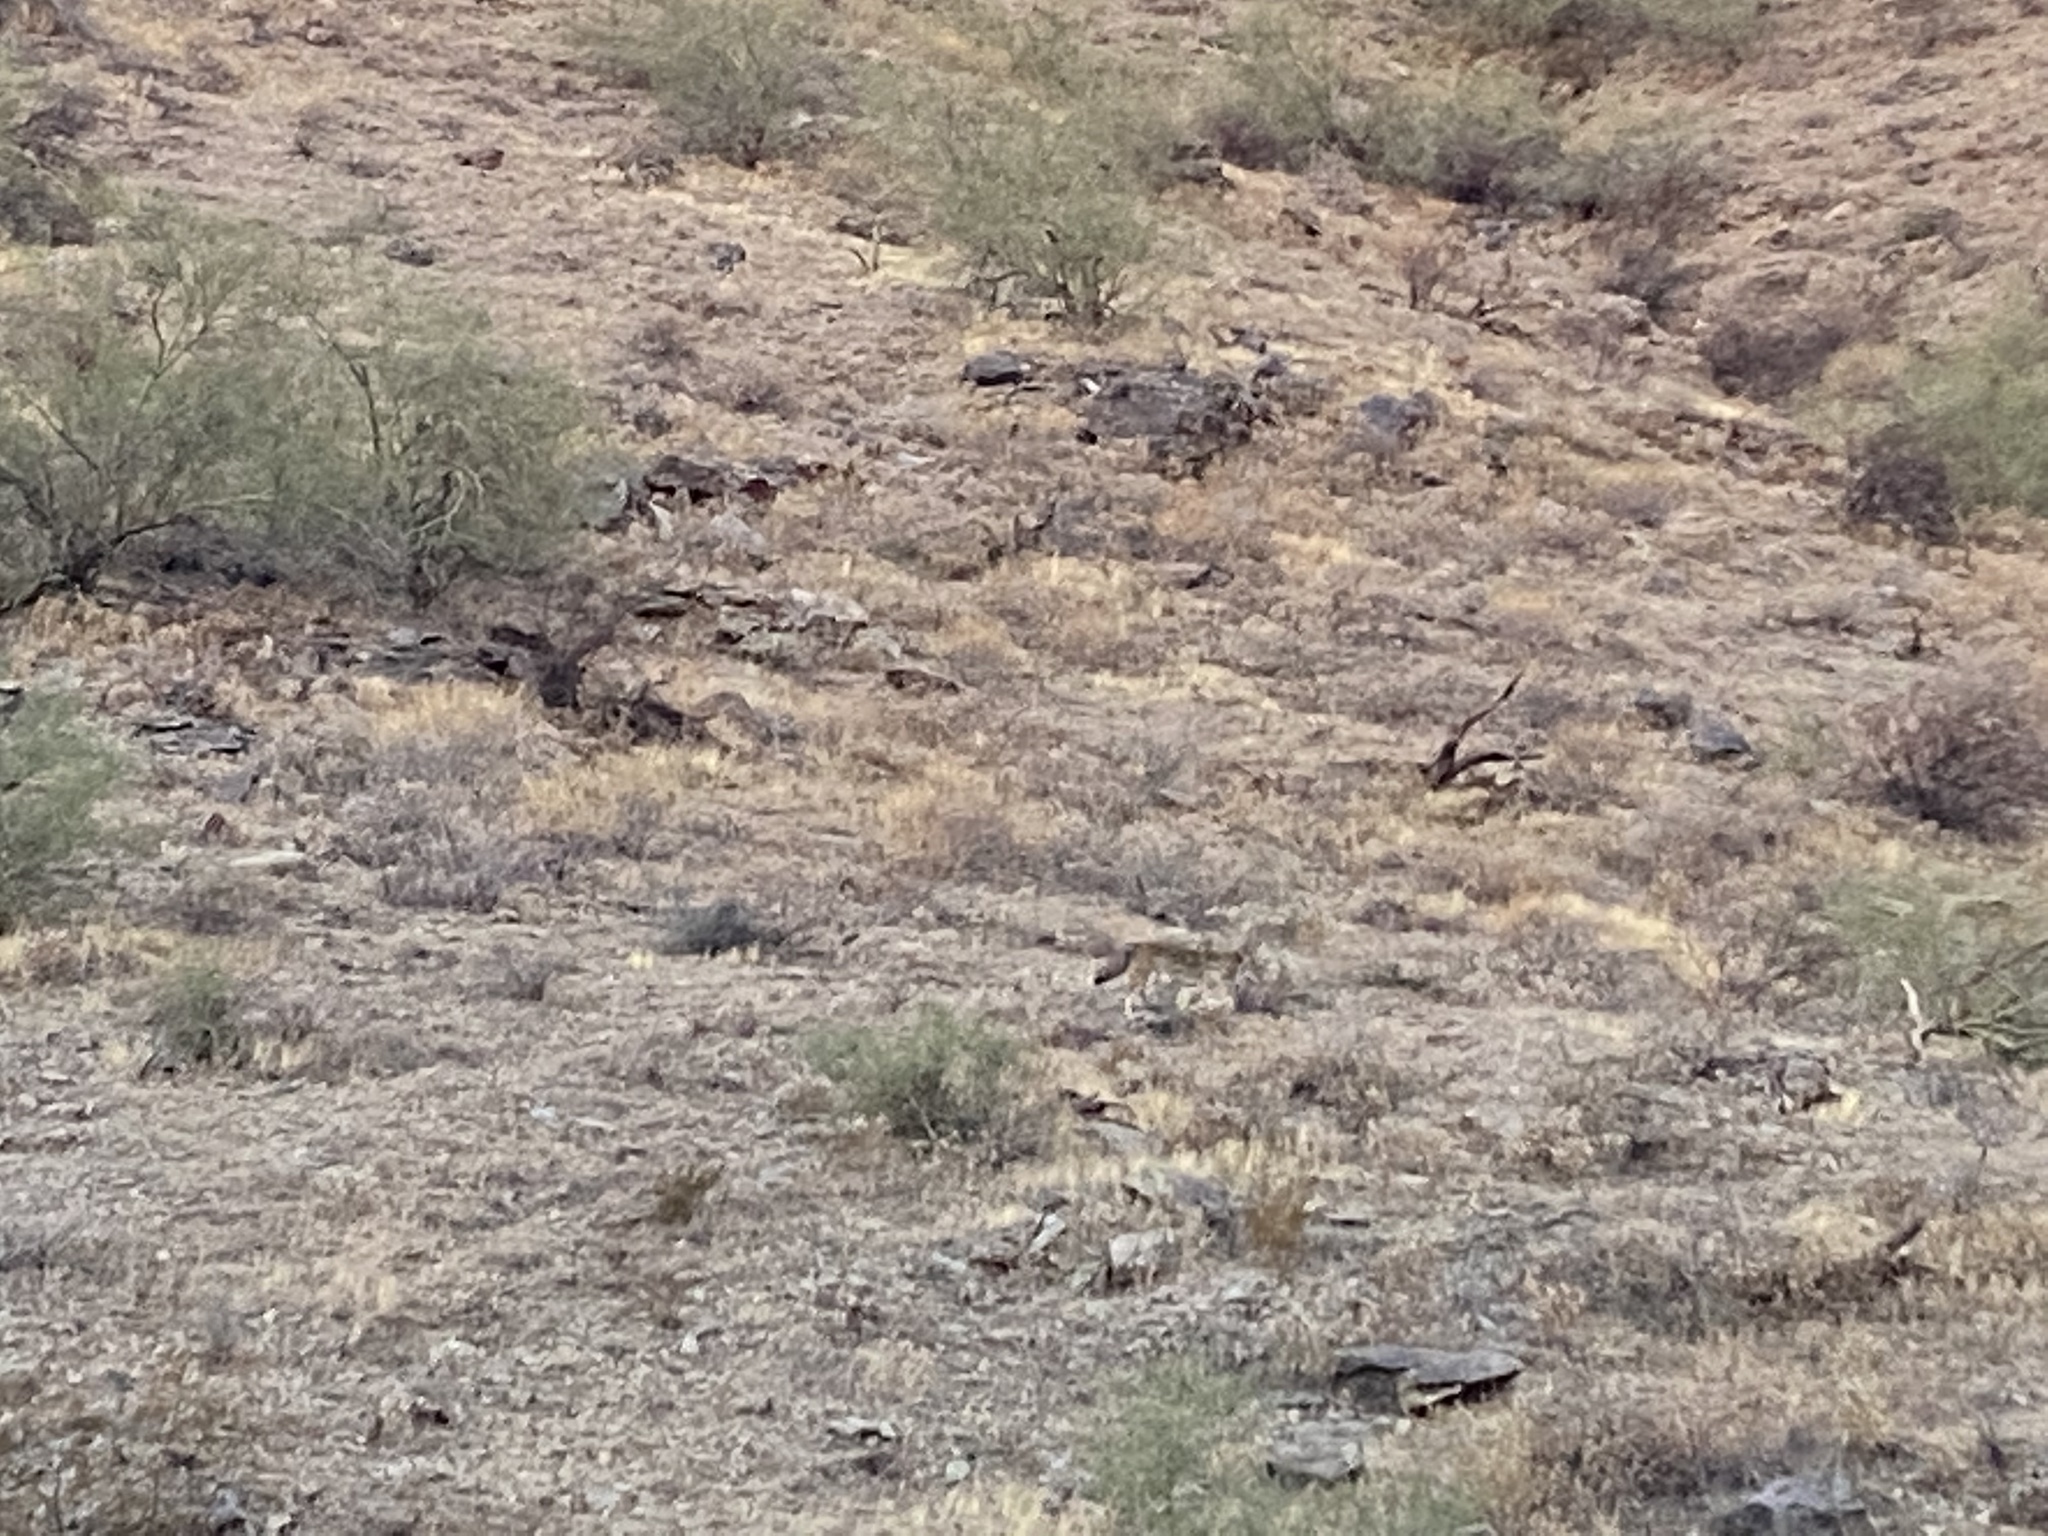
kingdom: Animalia
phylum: Chordata
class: Mammalia
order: Carnivora
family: Canidae
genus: Canis
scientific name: Canis latrans
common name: Coyote
